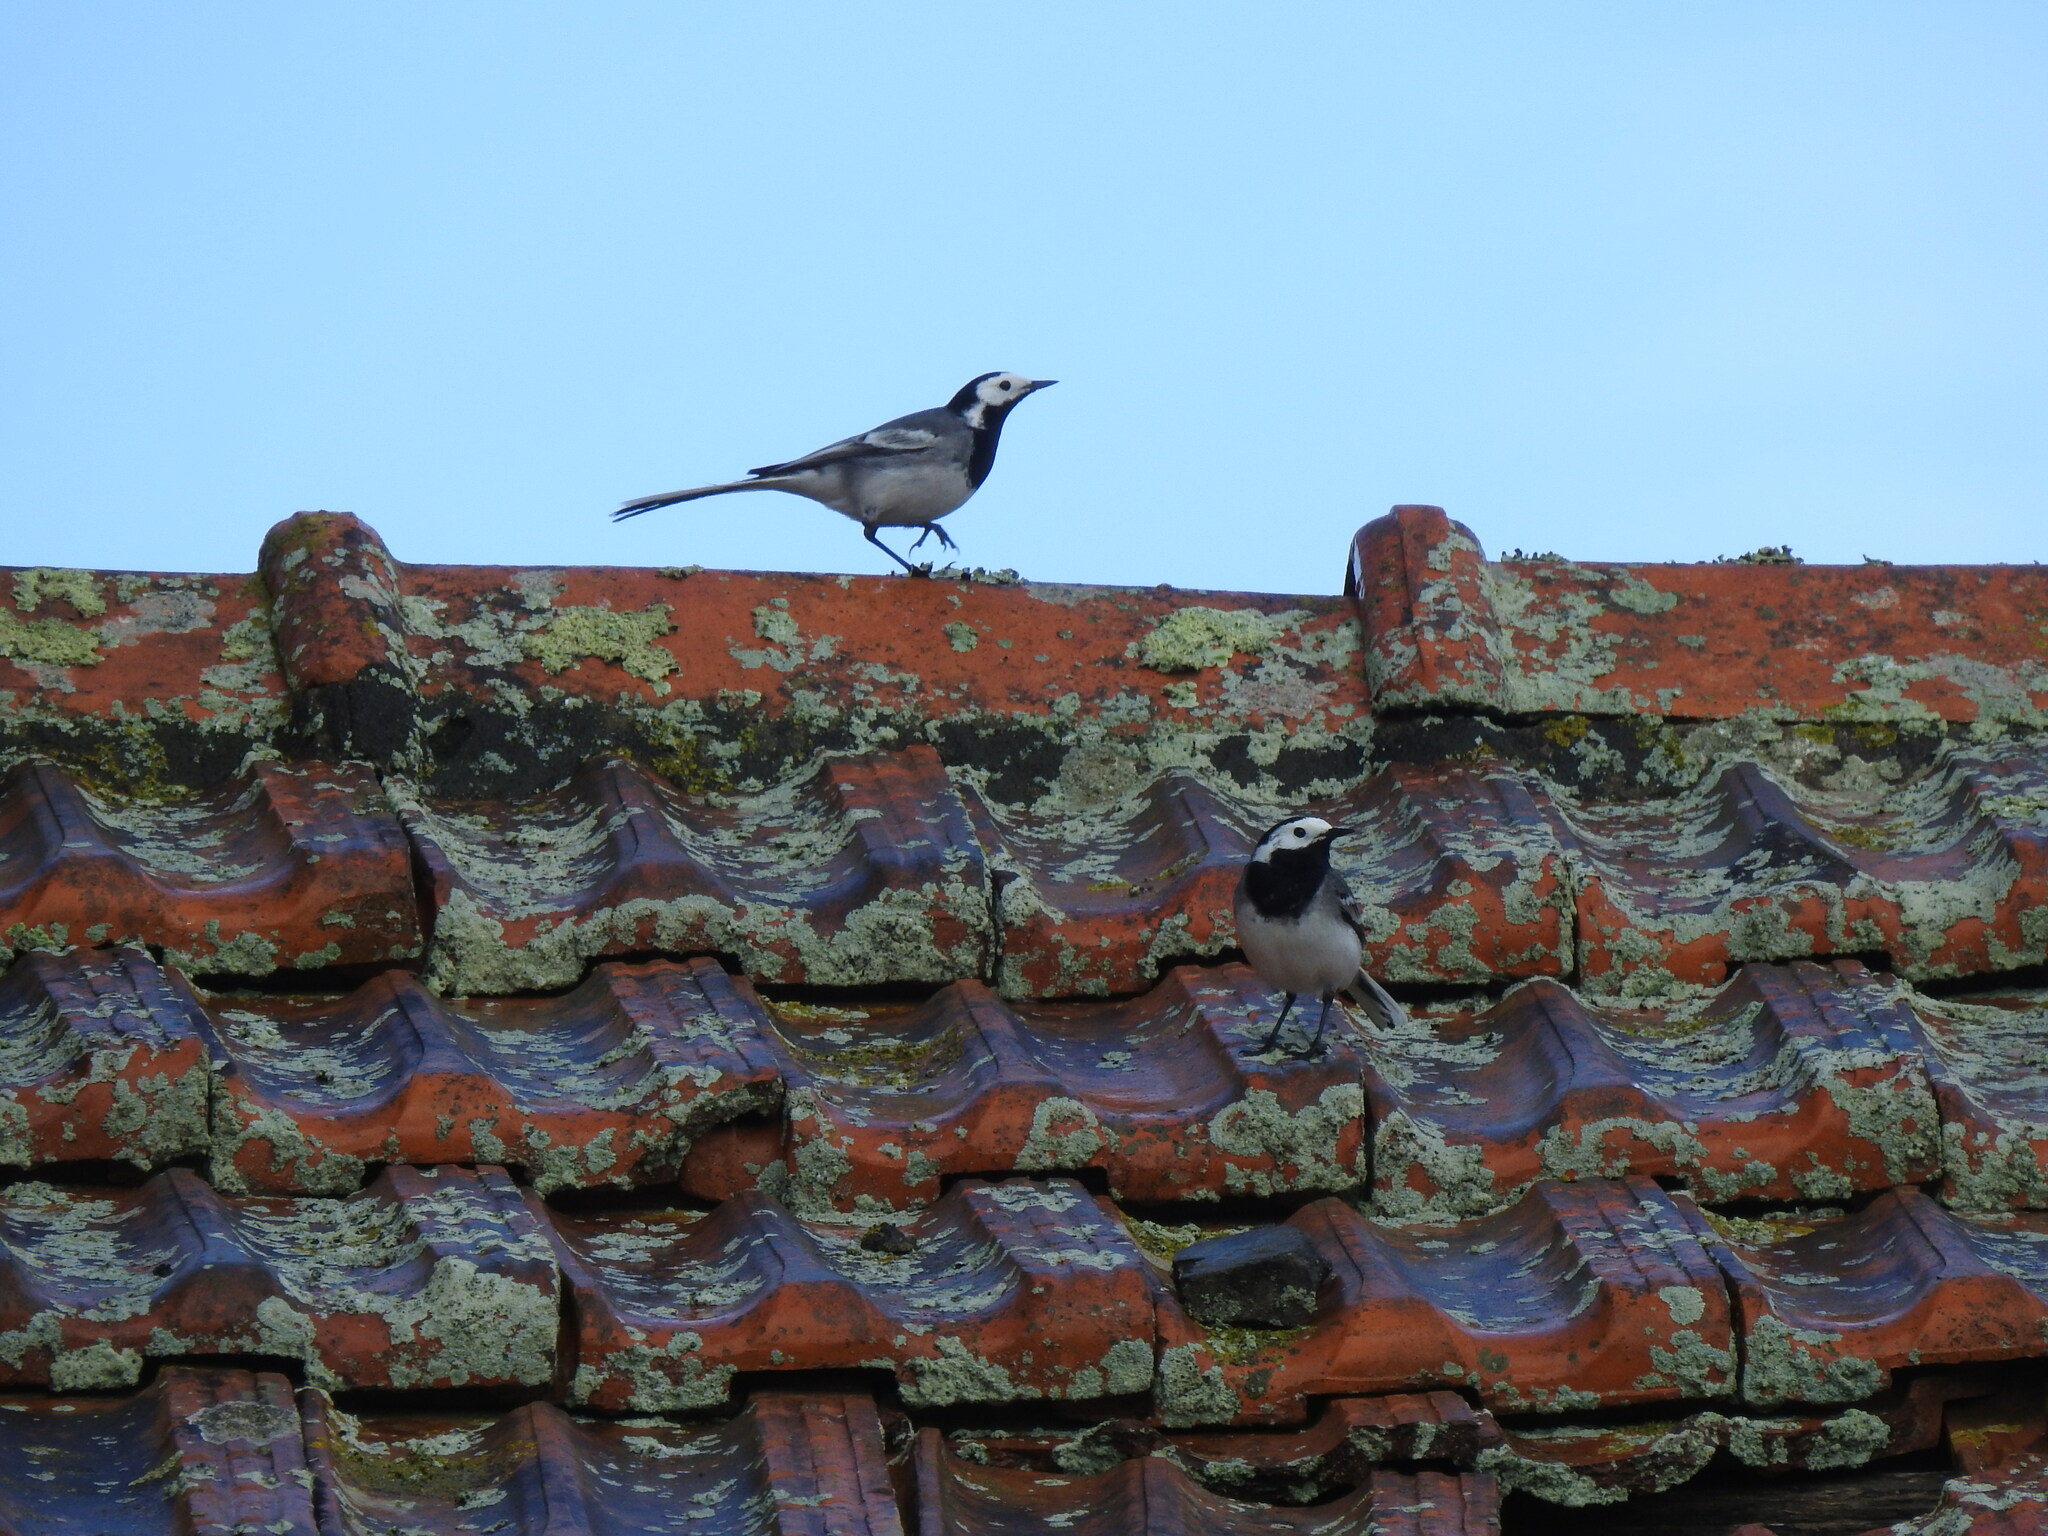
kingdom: Animalia
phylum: Chordata
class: Aves
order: Passeriformes
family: Motacillidae
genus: Motacilla
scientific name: Motacilla alba
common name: White wagtail
